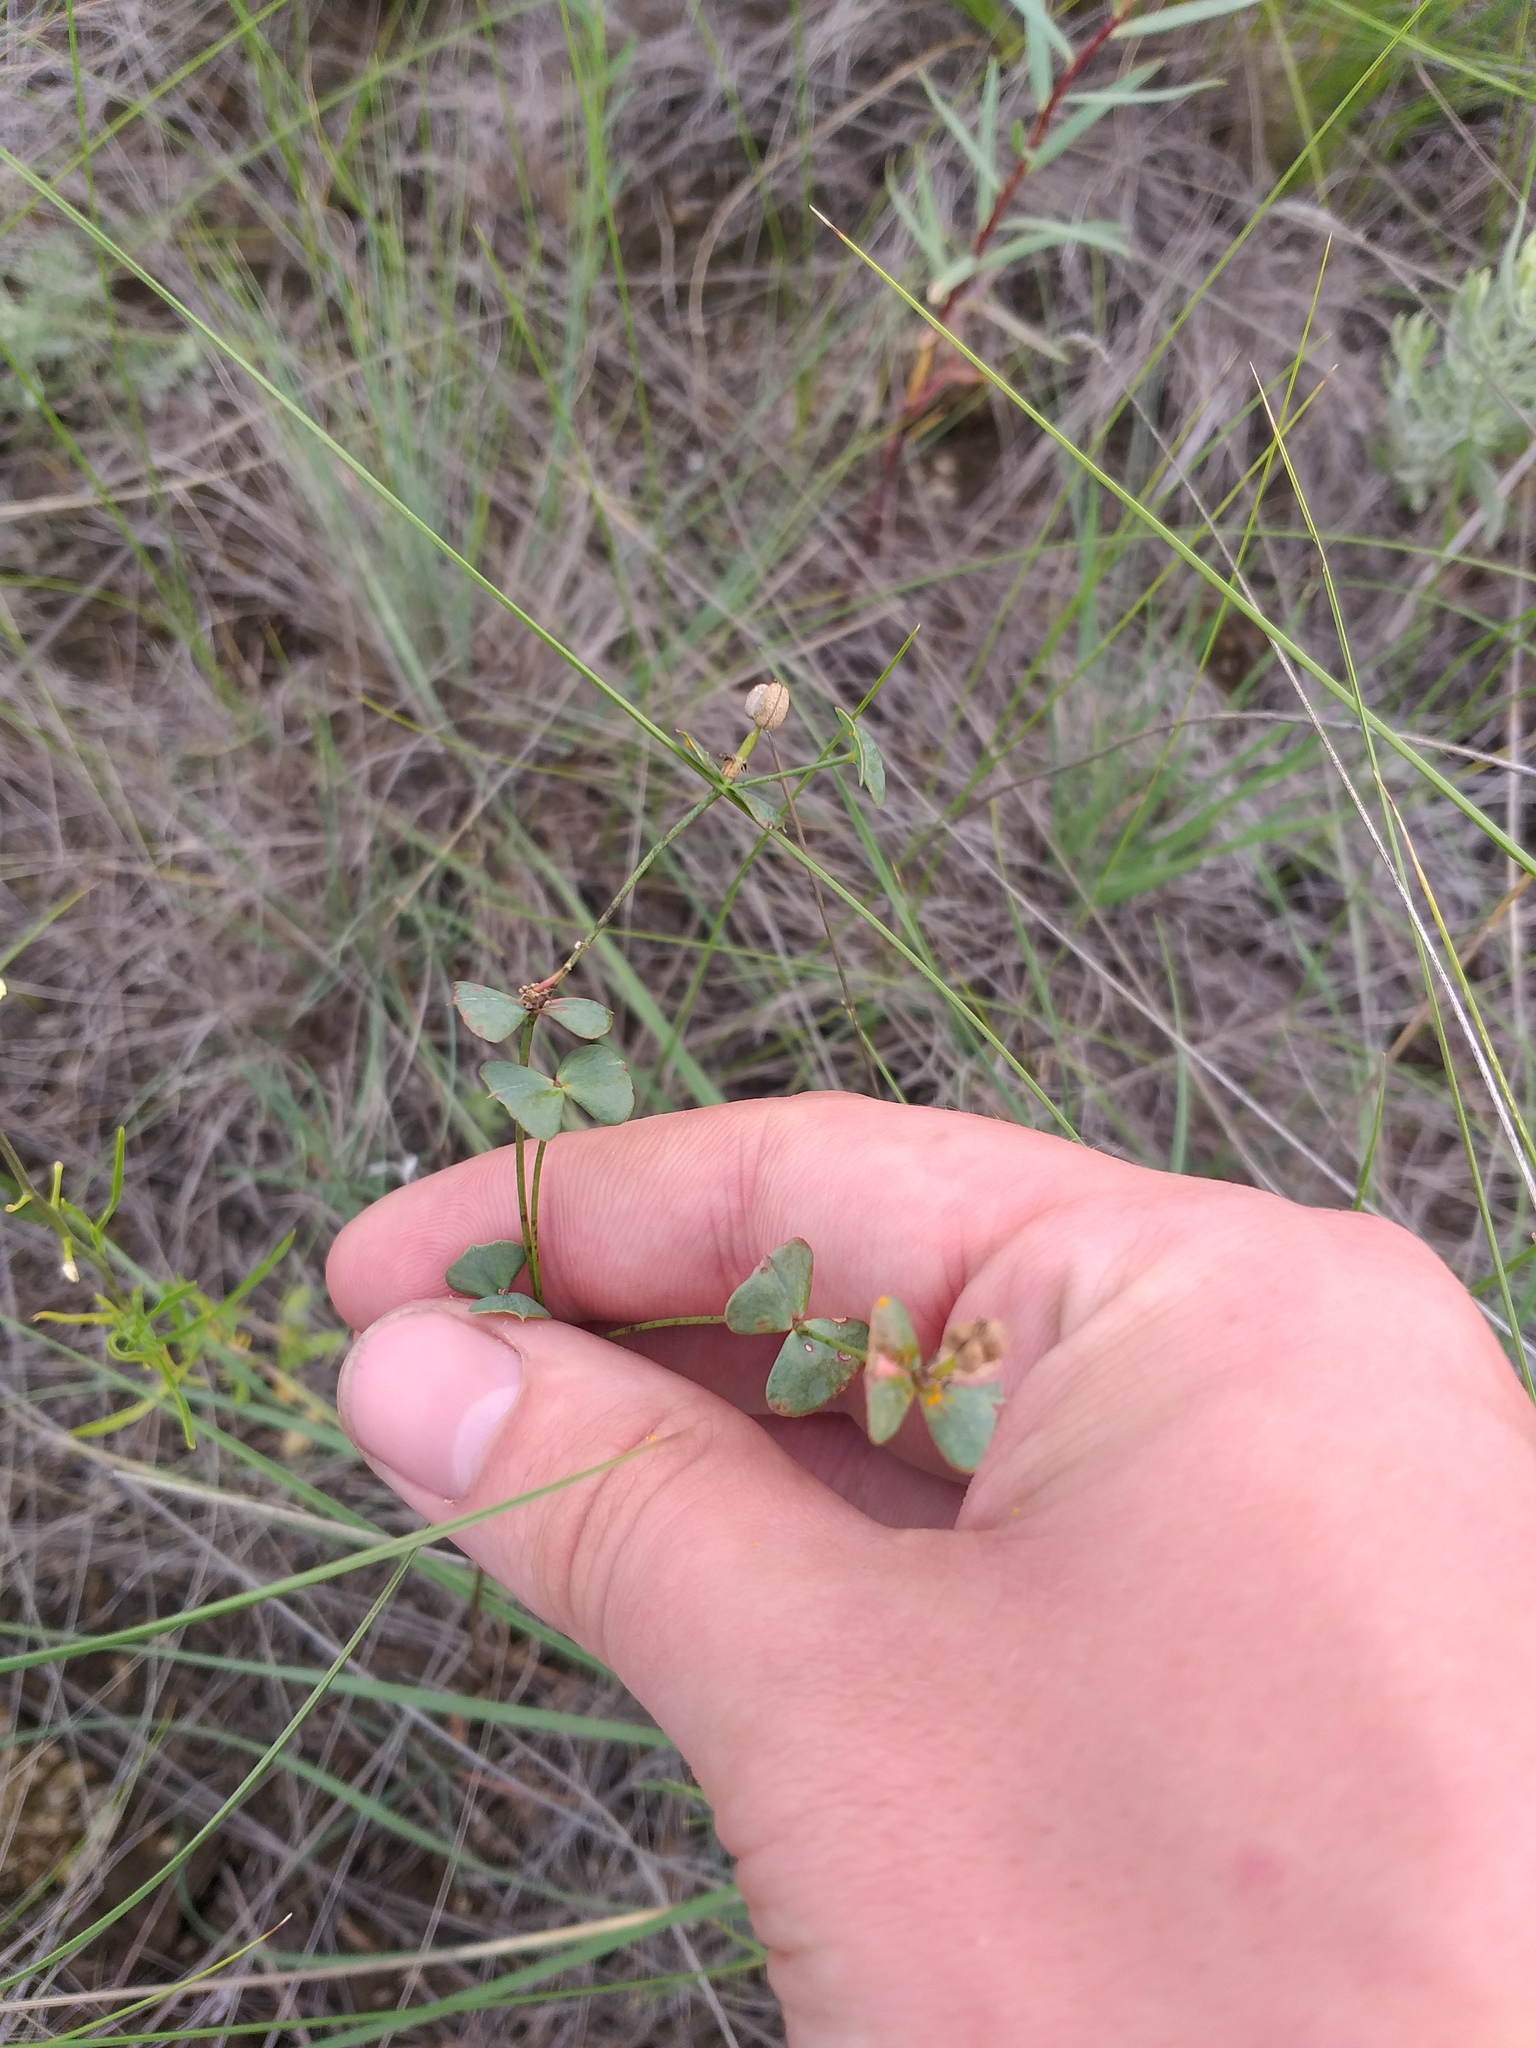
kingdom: Plantae
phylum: Tracheophyta
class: Magnoliopsida
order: Malpighiales
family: Euphorbiaceae
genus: Euphorbia
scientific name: Euphorbia microcarpa
